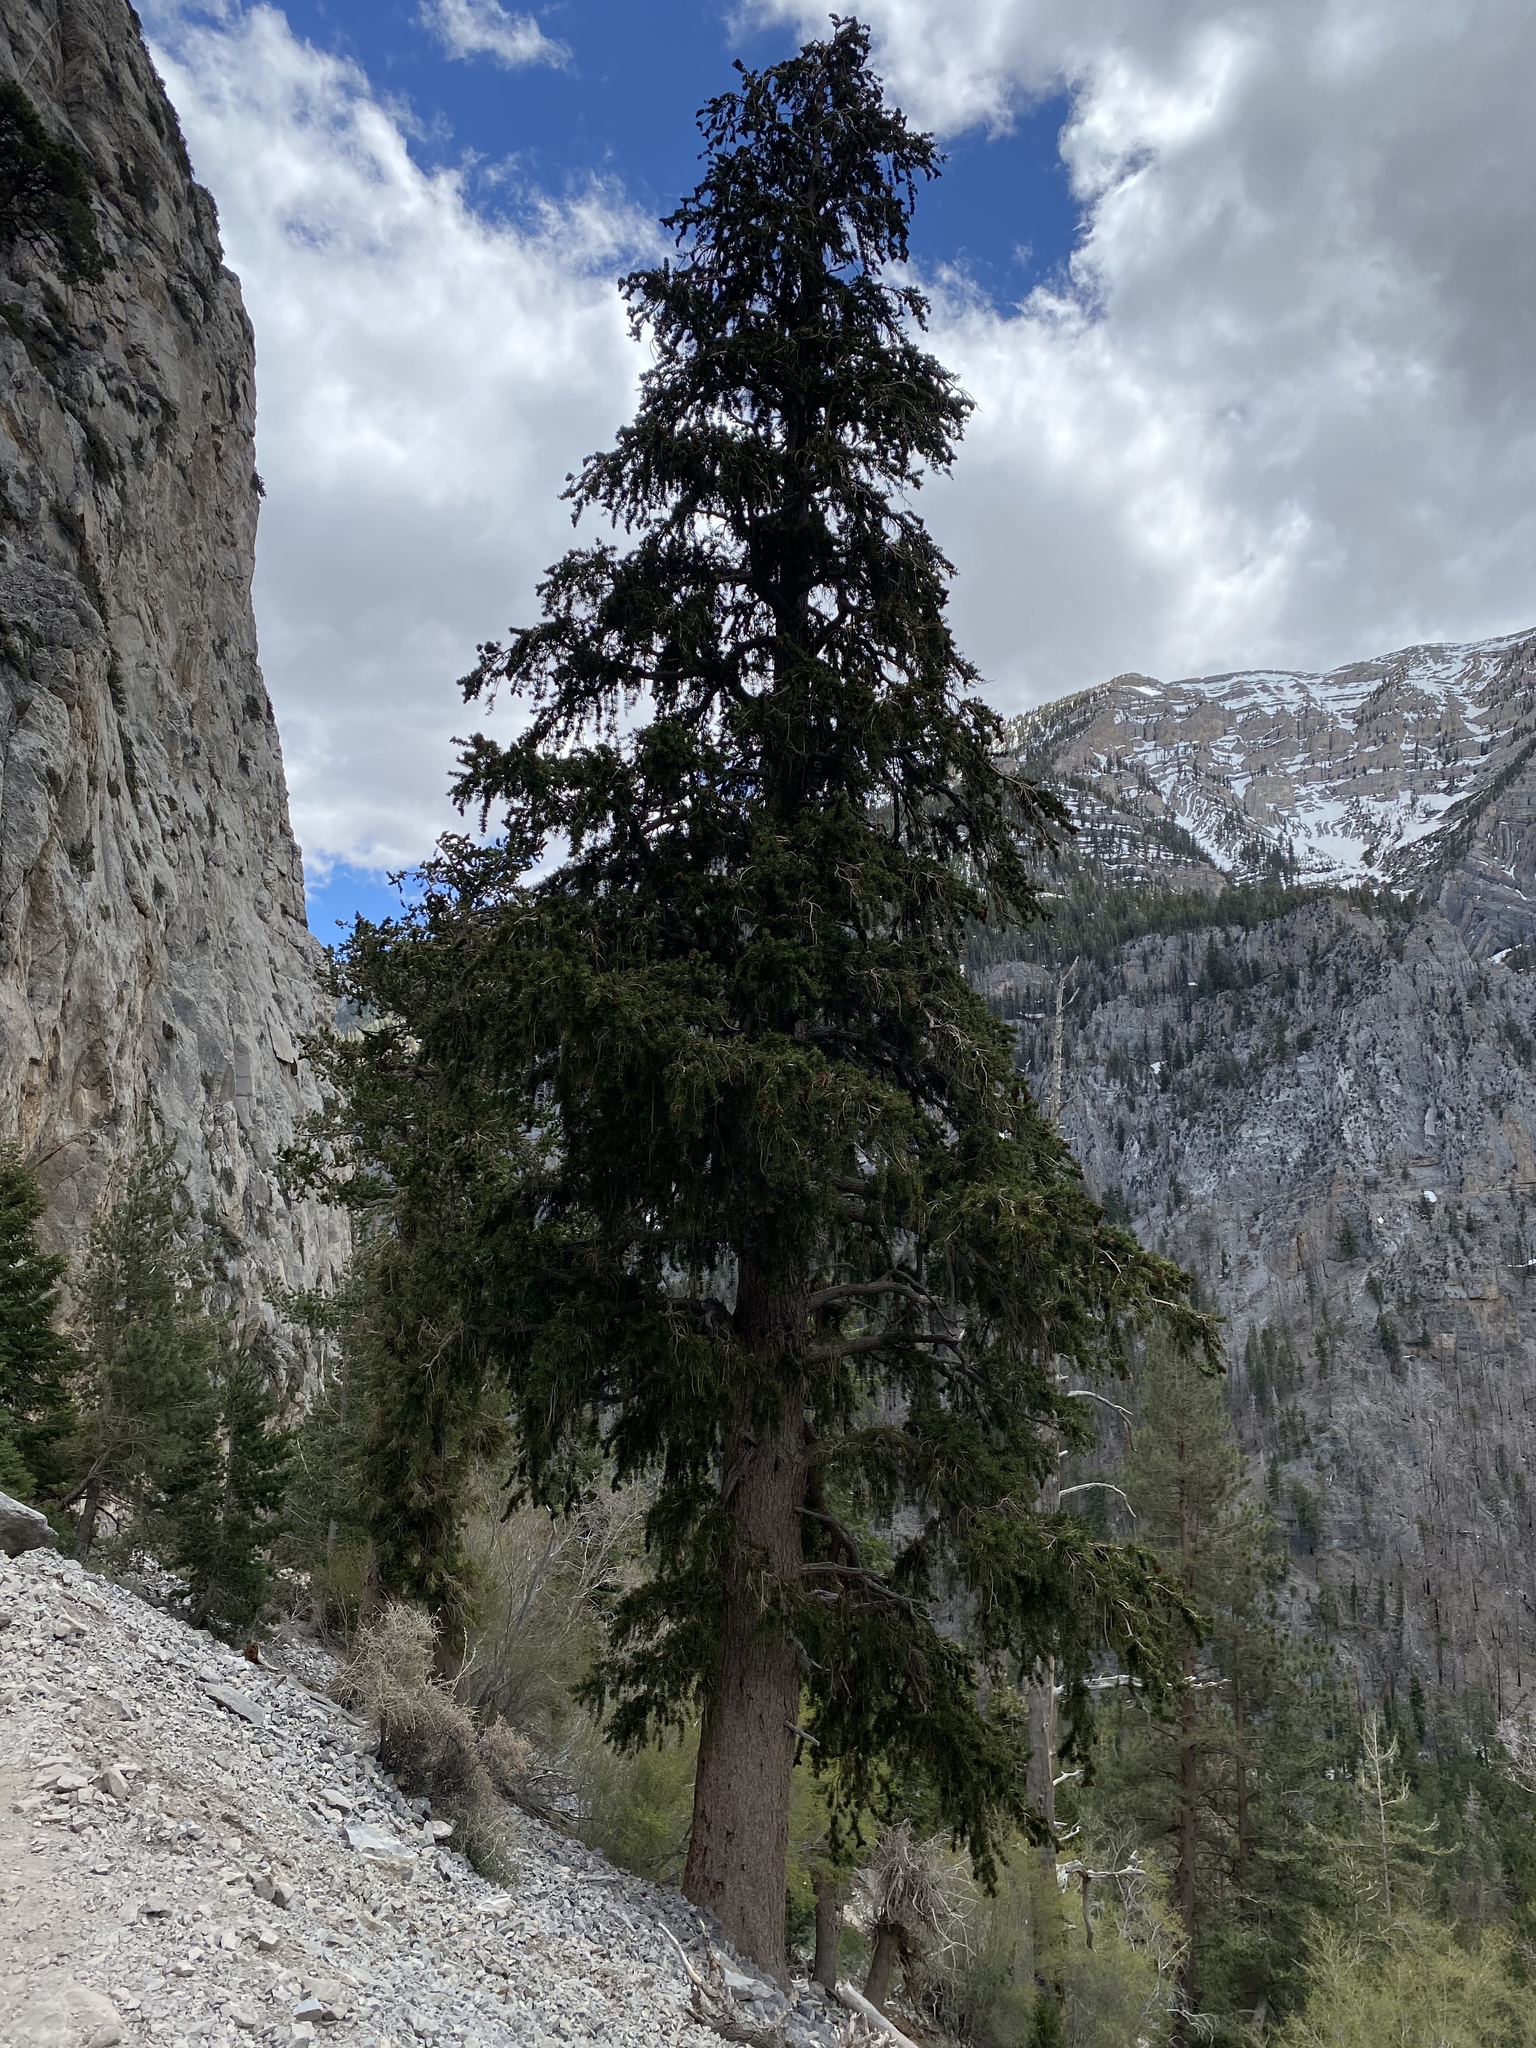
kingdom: Plantae
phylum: Tracheophyta
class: Pinopsida
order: Pinales
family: Pinaceae
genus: Pinus
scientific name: Pinus longaeva
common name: Intermountain bristlecone pine
